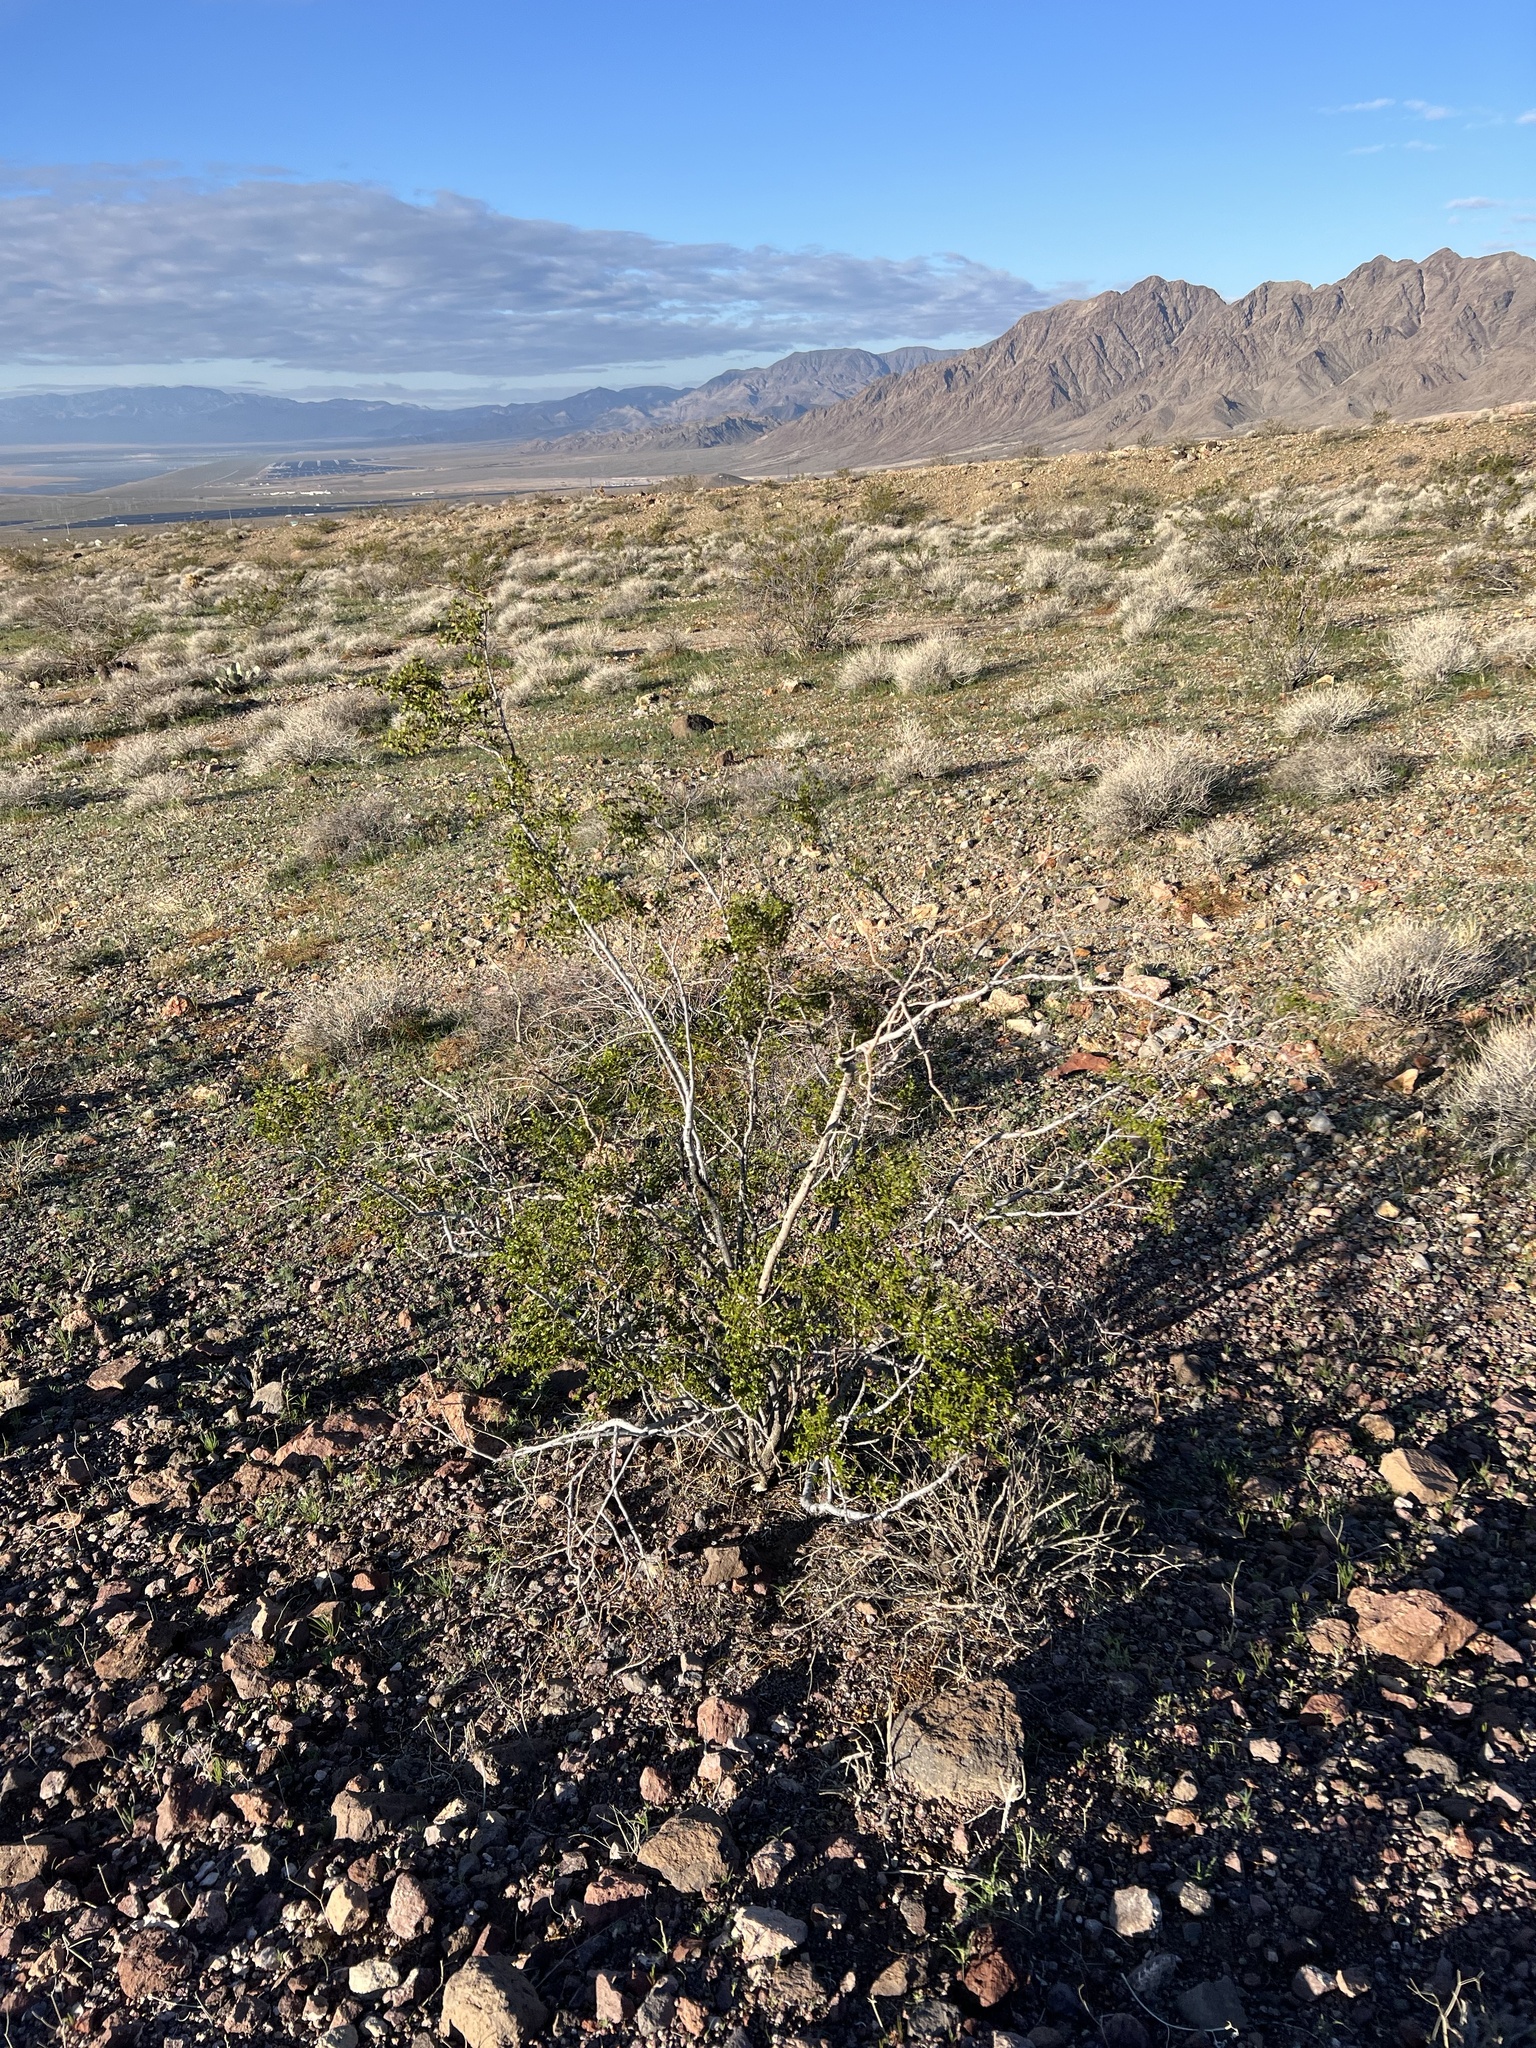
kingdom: Plantae
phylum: Tracheophyta
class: Magnoliopsida
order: Zygophyllales
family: Zygophyllaceae
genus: Larrea
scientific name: Larrea tridentata
